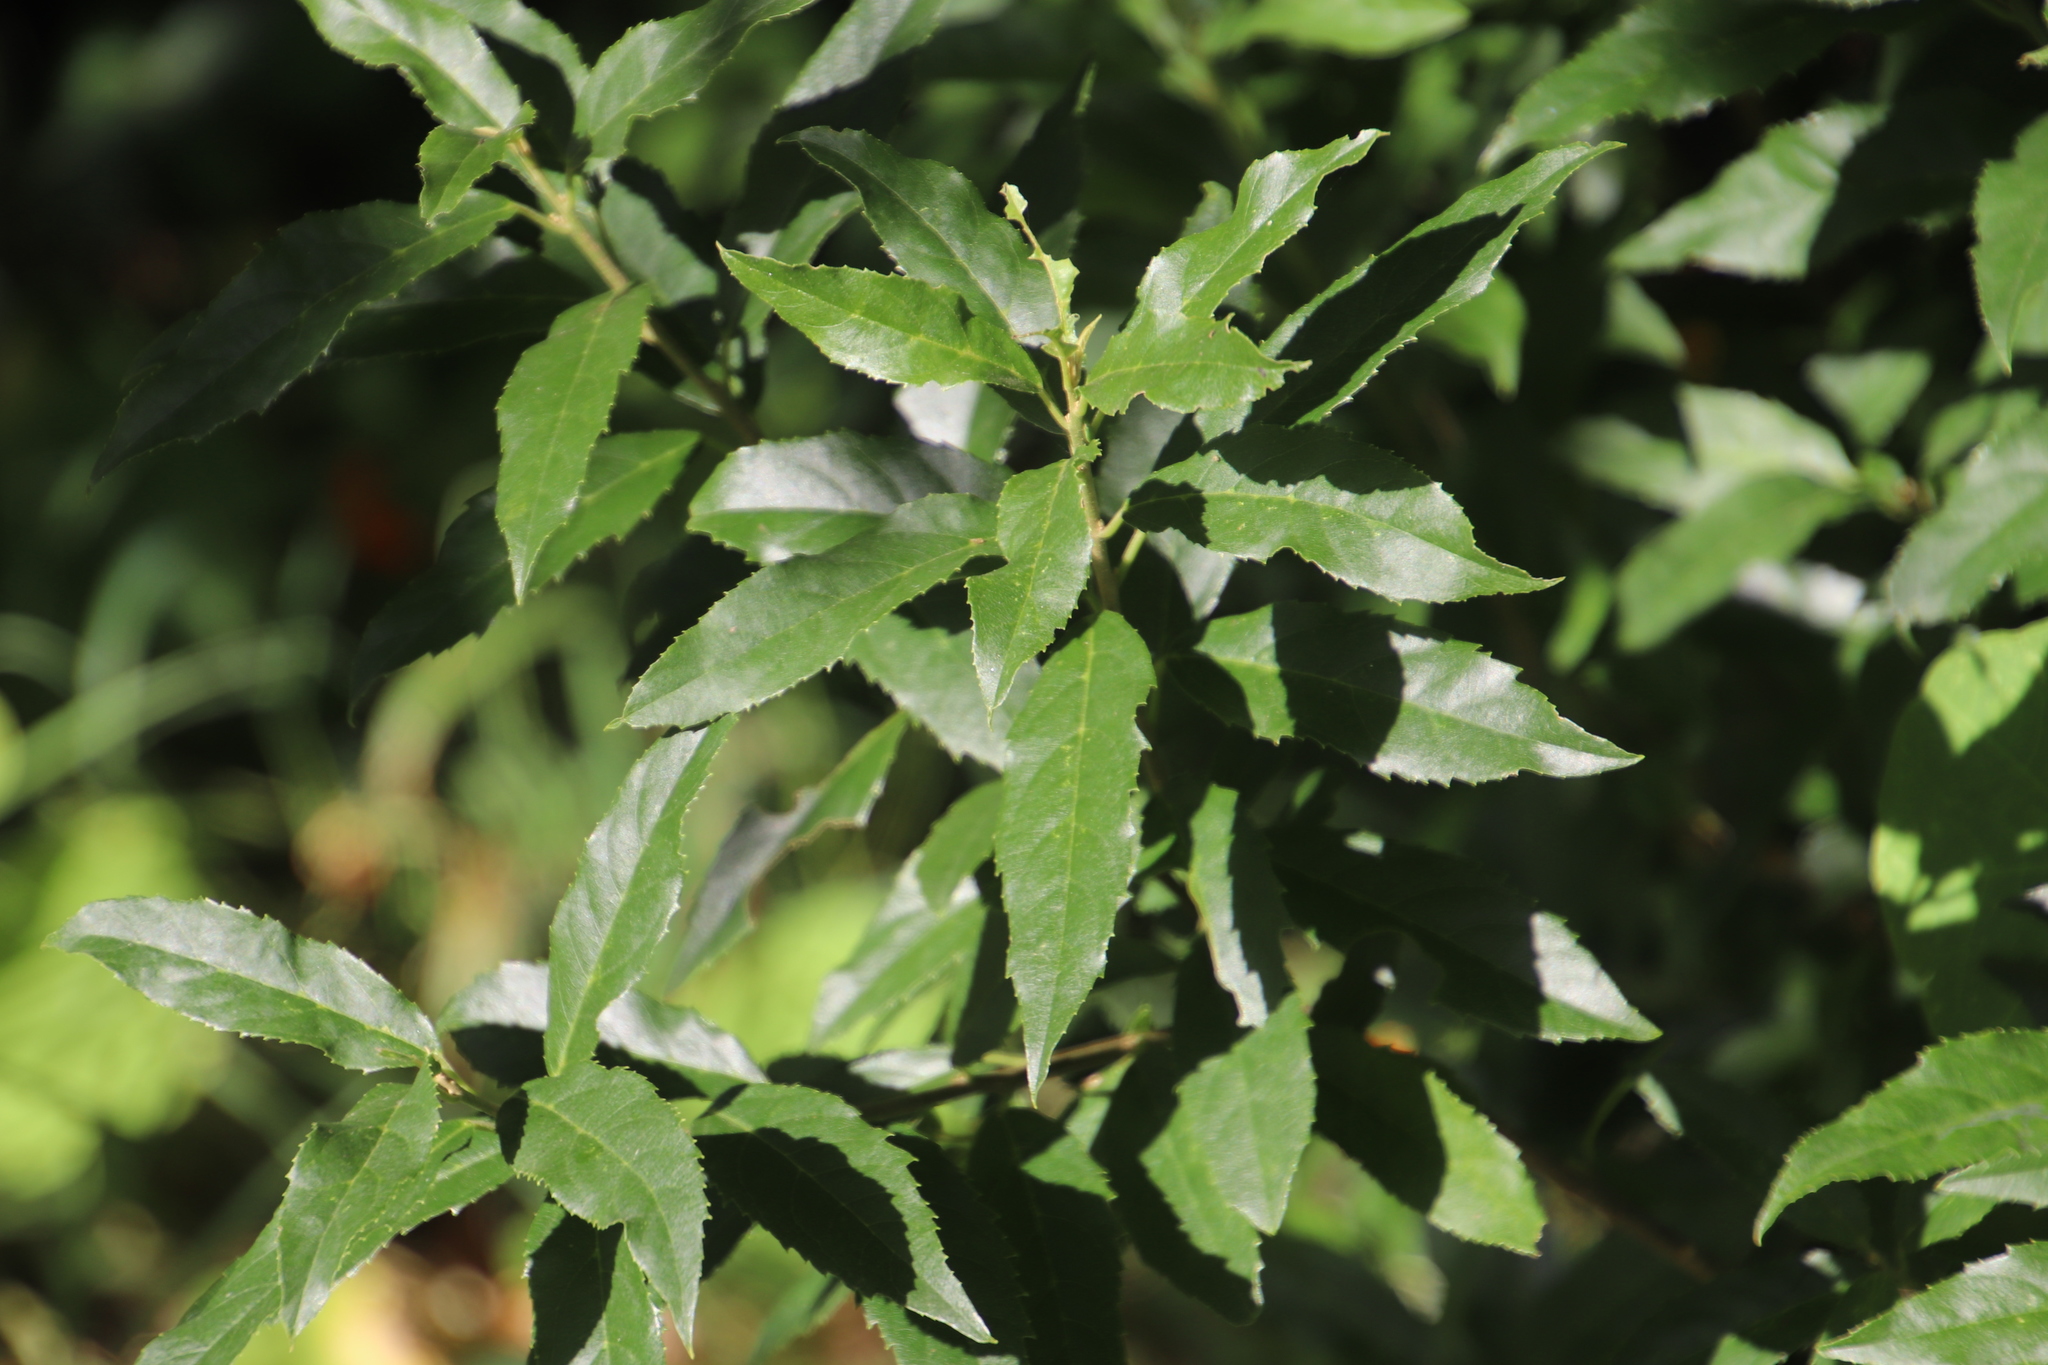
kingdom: Plantae
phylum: Tracheophyta
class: Magnoliopsida
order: Malpighiales
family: Achariaceae
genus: Kiggelaria
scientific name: Kiggelaria africana
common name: Wild peach
